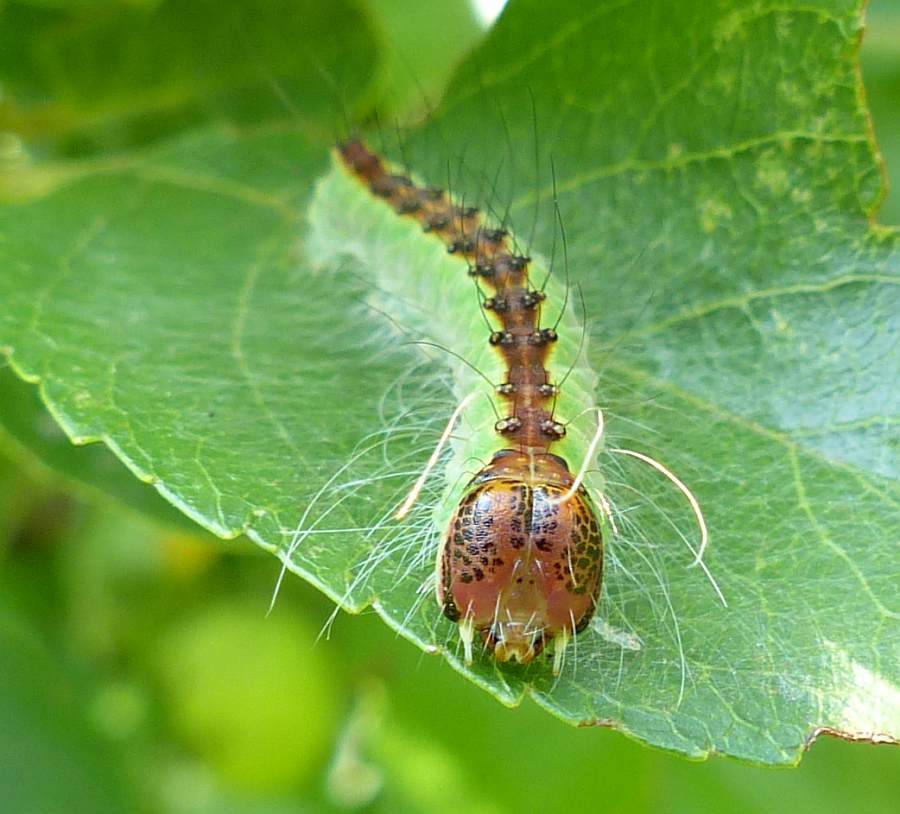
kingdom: Animalia
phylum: Arthropoda
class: Insecta
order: Lepidoptera
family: Noctuidae
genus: Acronicta
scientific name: Acronicta superans
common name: Splendid dagger
